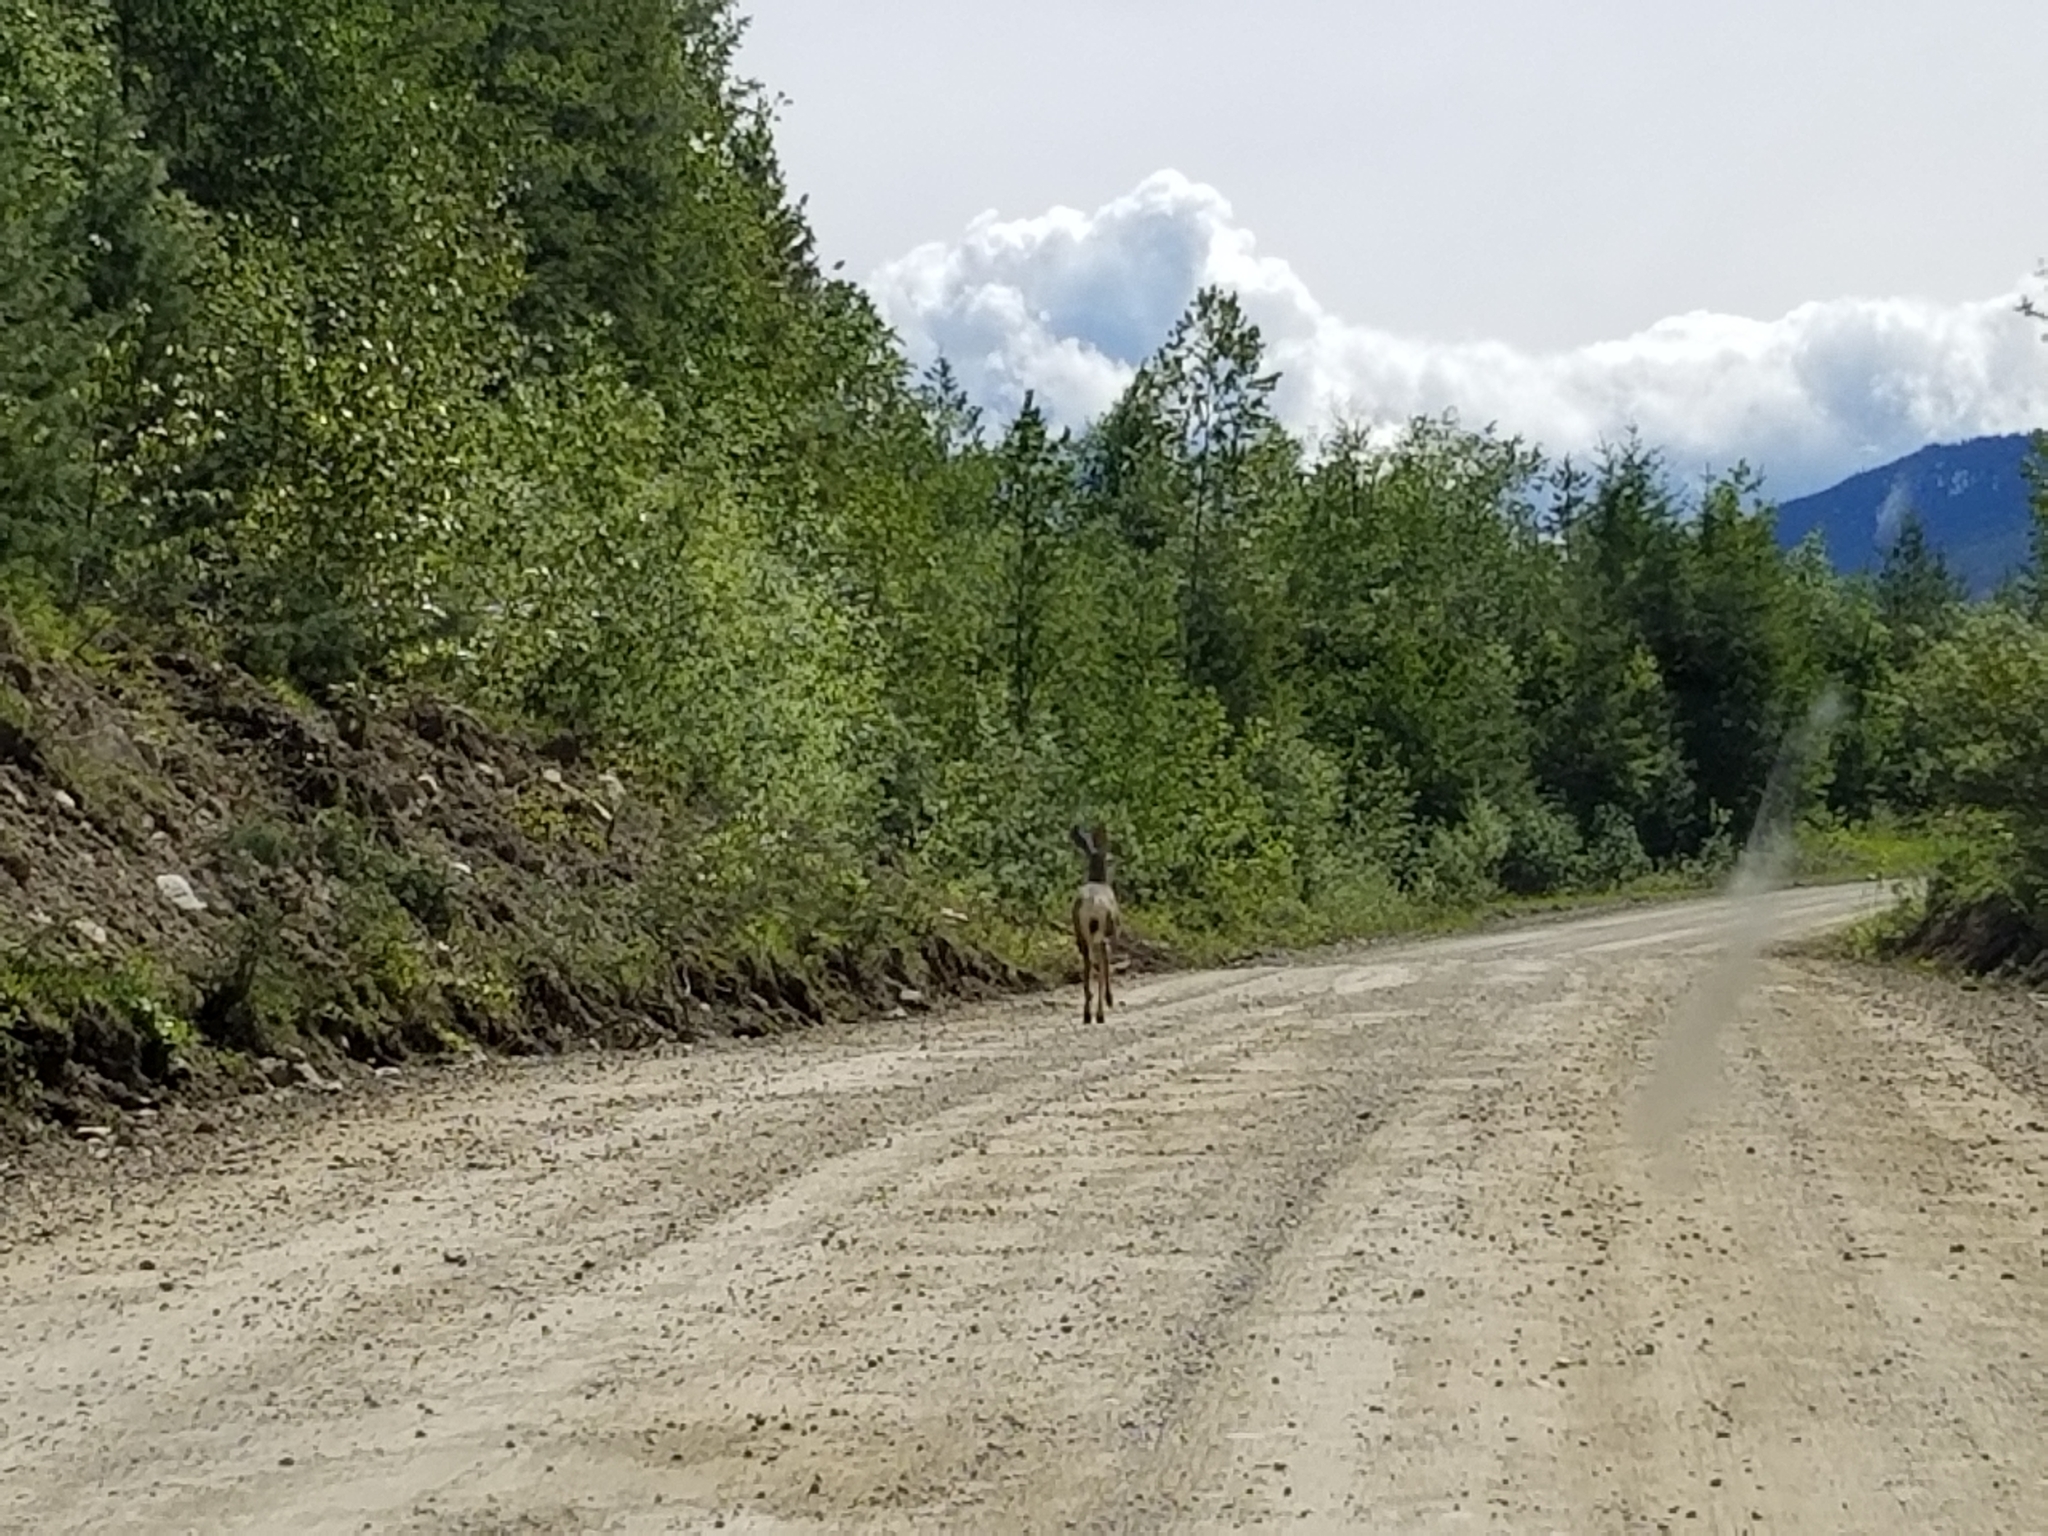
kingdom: Animalia
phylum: Chordata
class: Mammalia
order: Artiodactyla
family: Cervidae
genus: Odocoileus
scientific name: Odocoileus hemionus
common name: Mule deer
